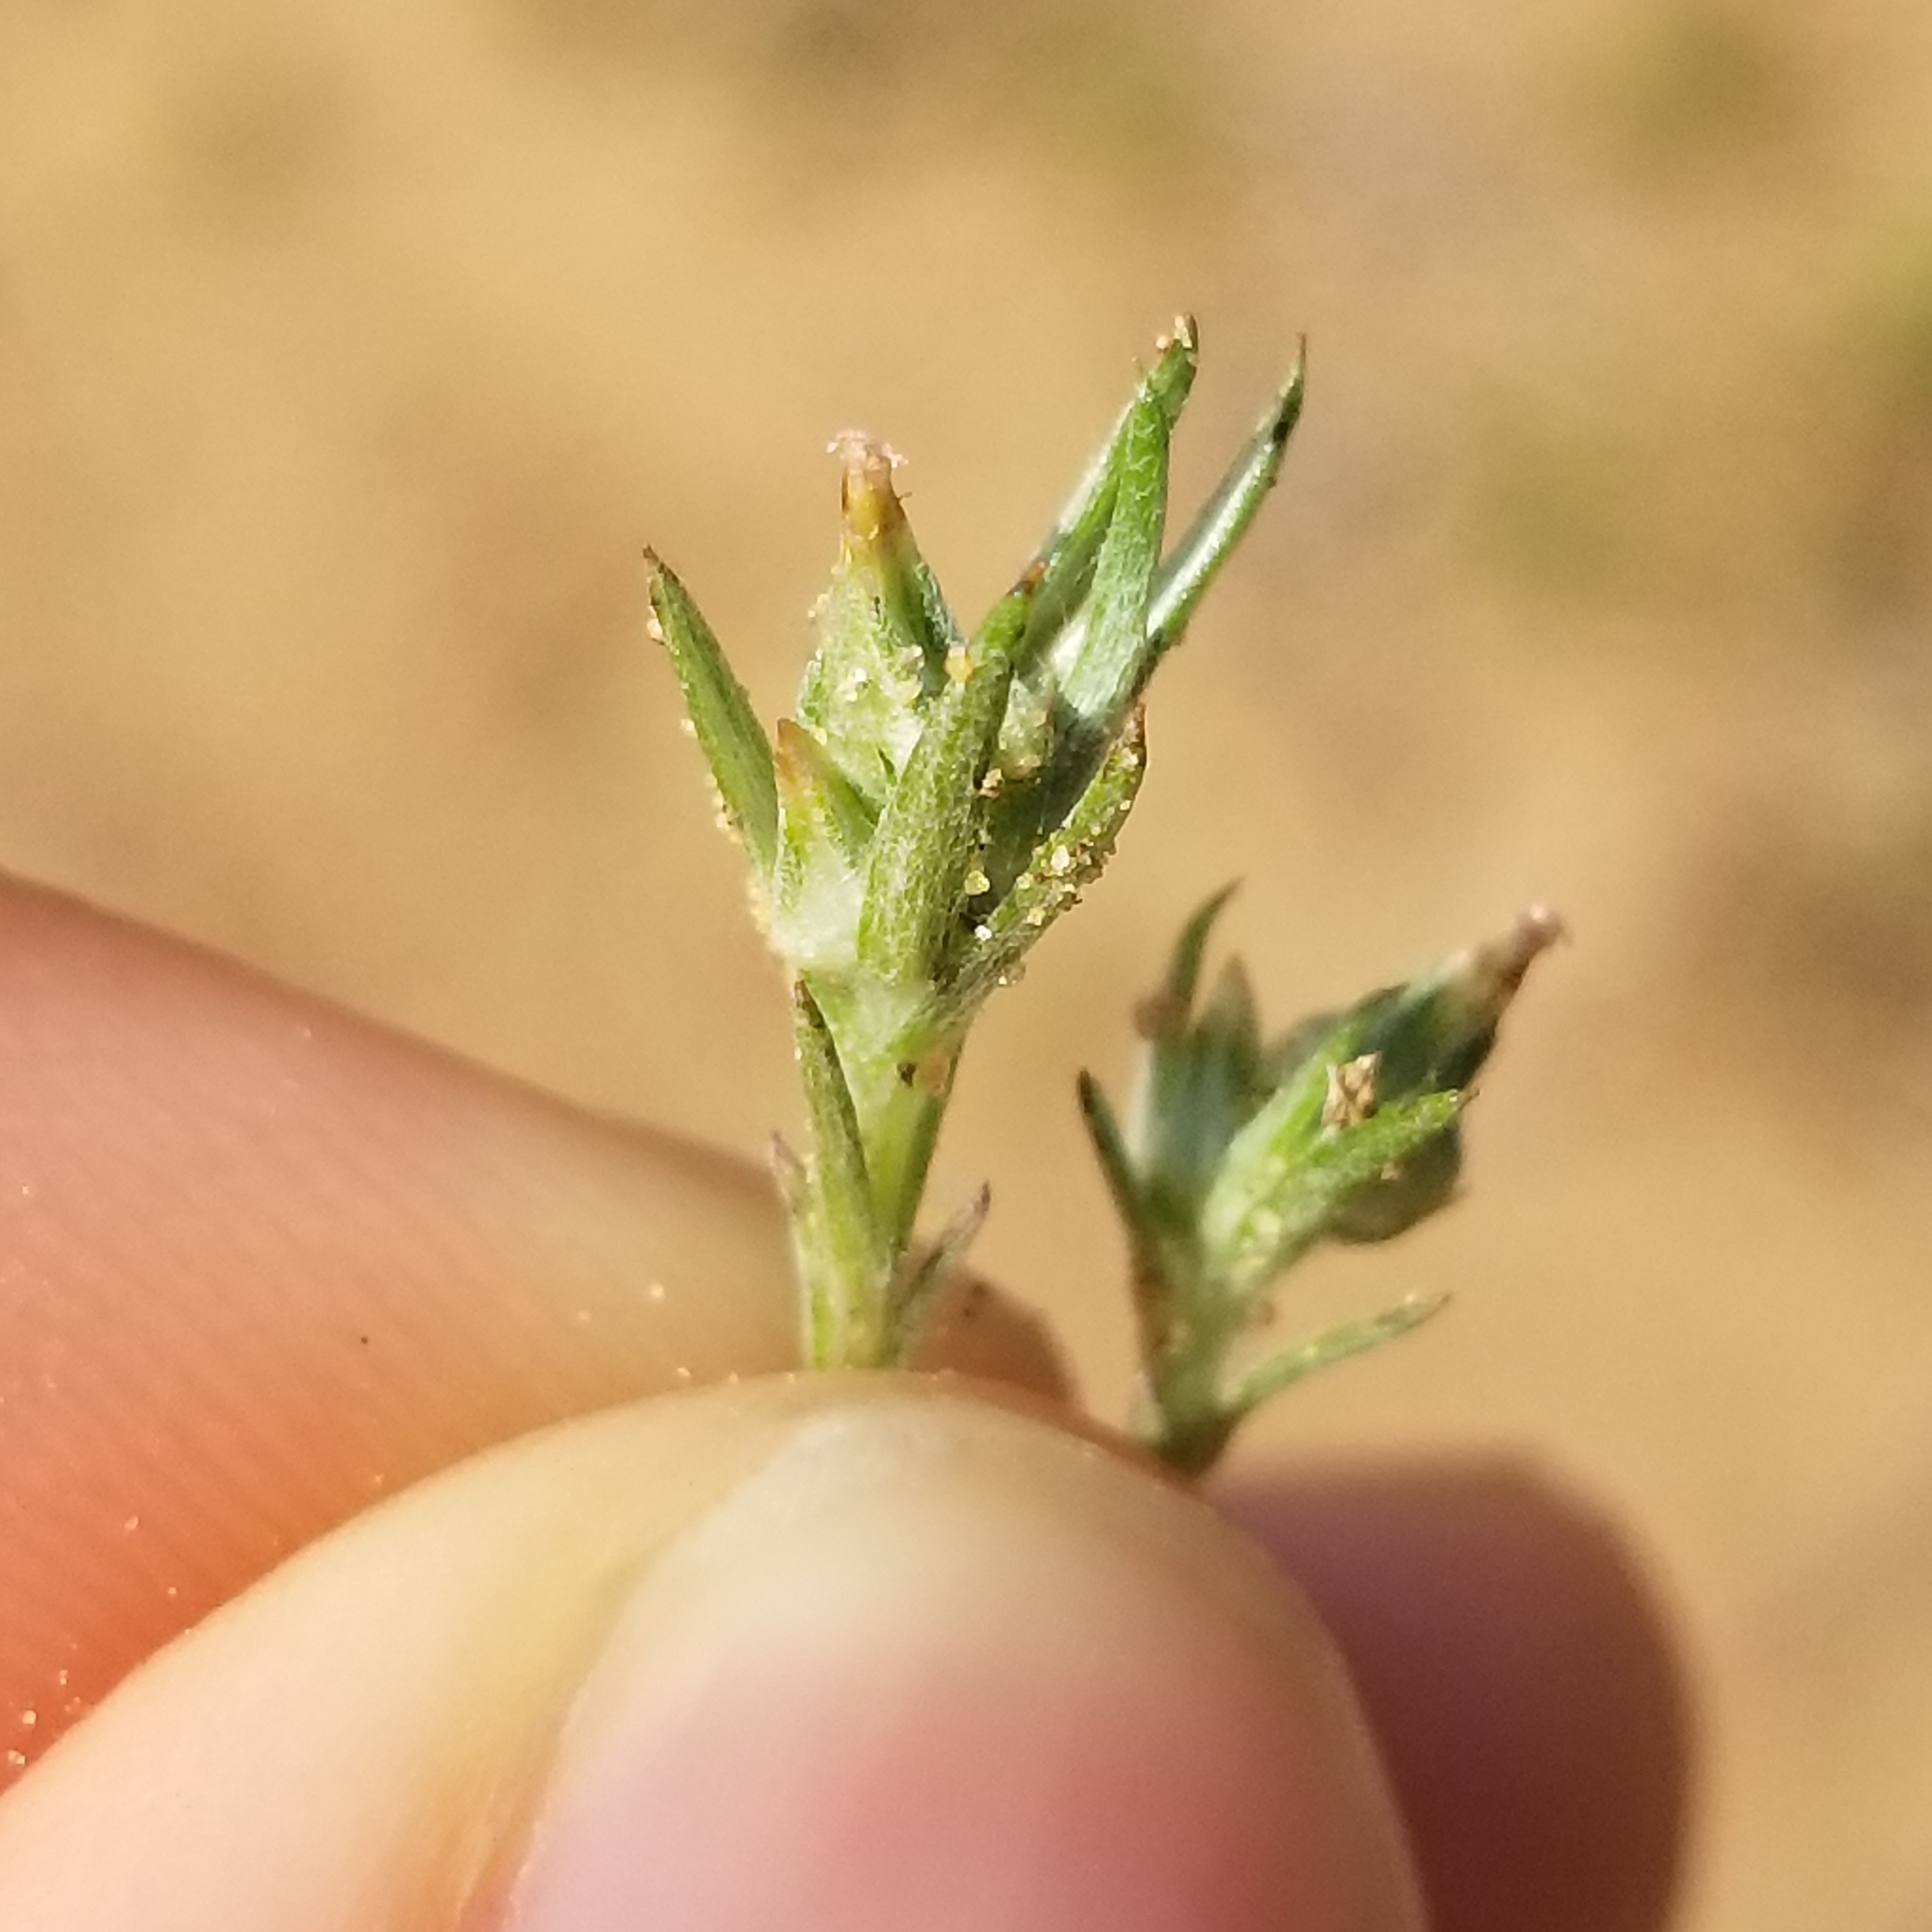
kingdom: Plantae
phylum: Tracheophyta
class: Magnoliopsida
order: Asterales
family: Asteraceae
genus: Logfia
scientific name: Logfia gallica
